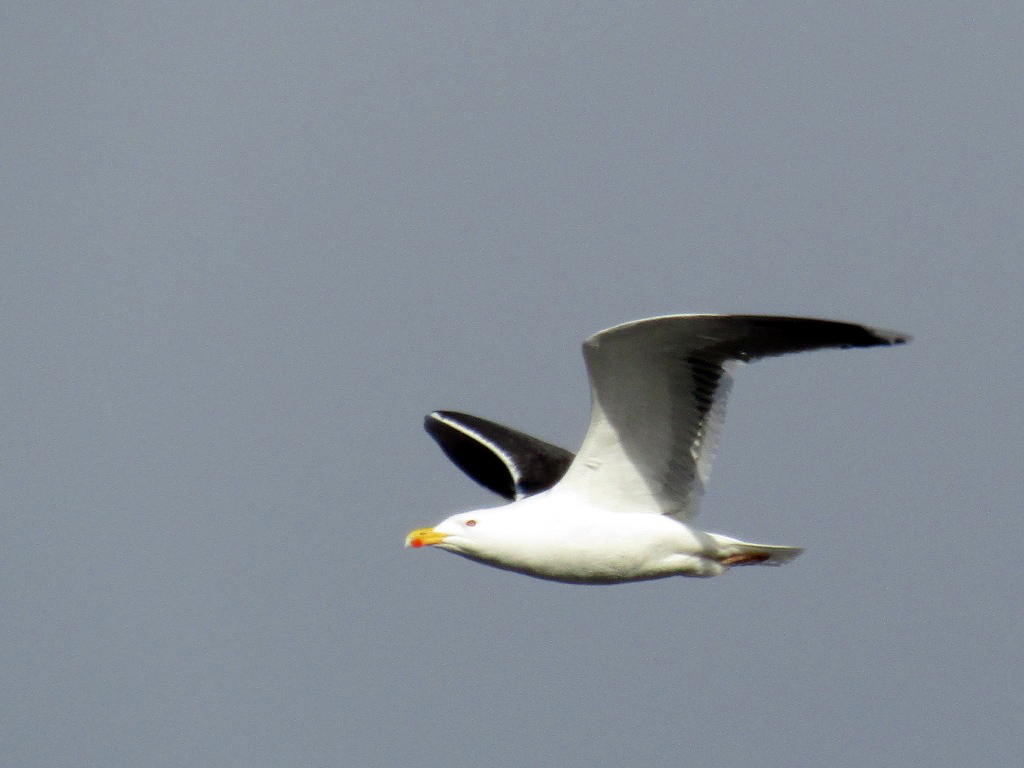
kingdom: Animalia
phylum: Chordata
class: Aves
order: Charadriiformes
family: Laridae
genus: Larus
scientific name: Larus marinus
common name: Great black-backed gull
